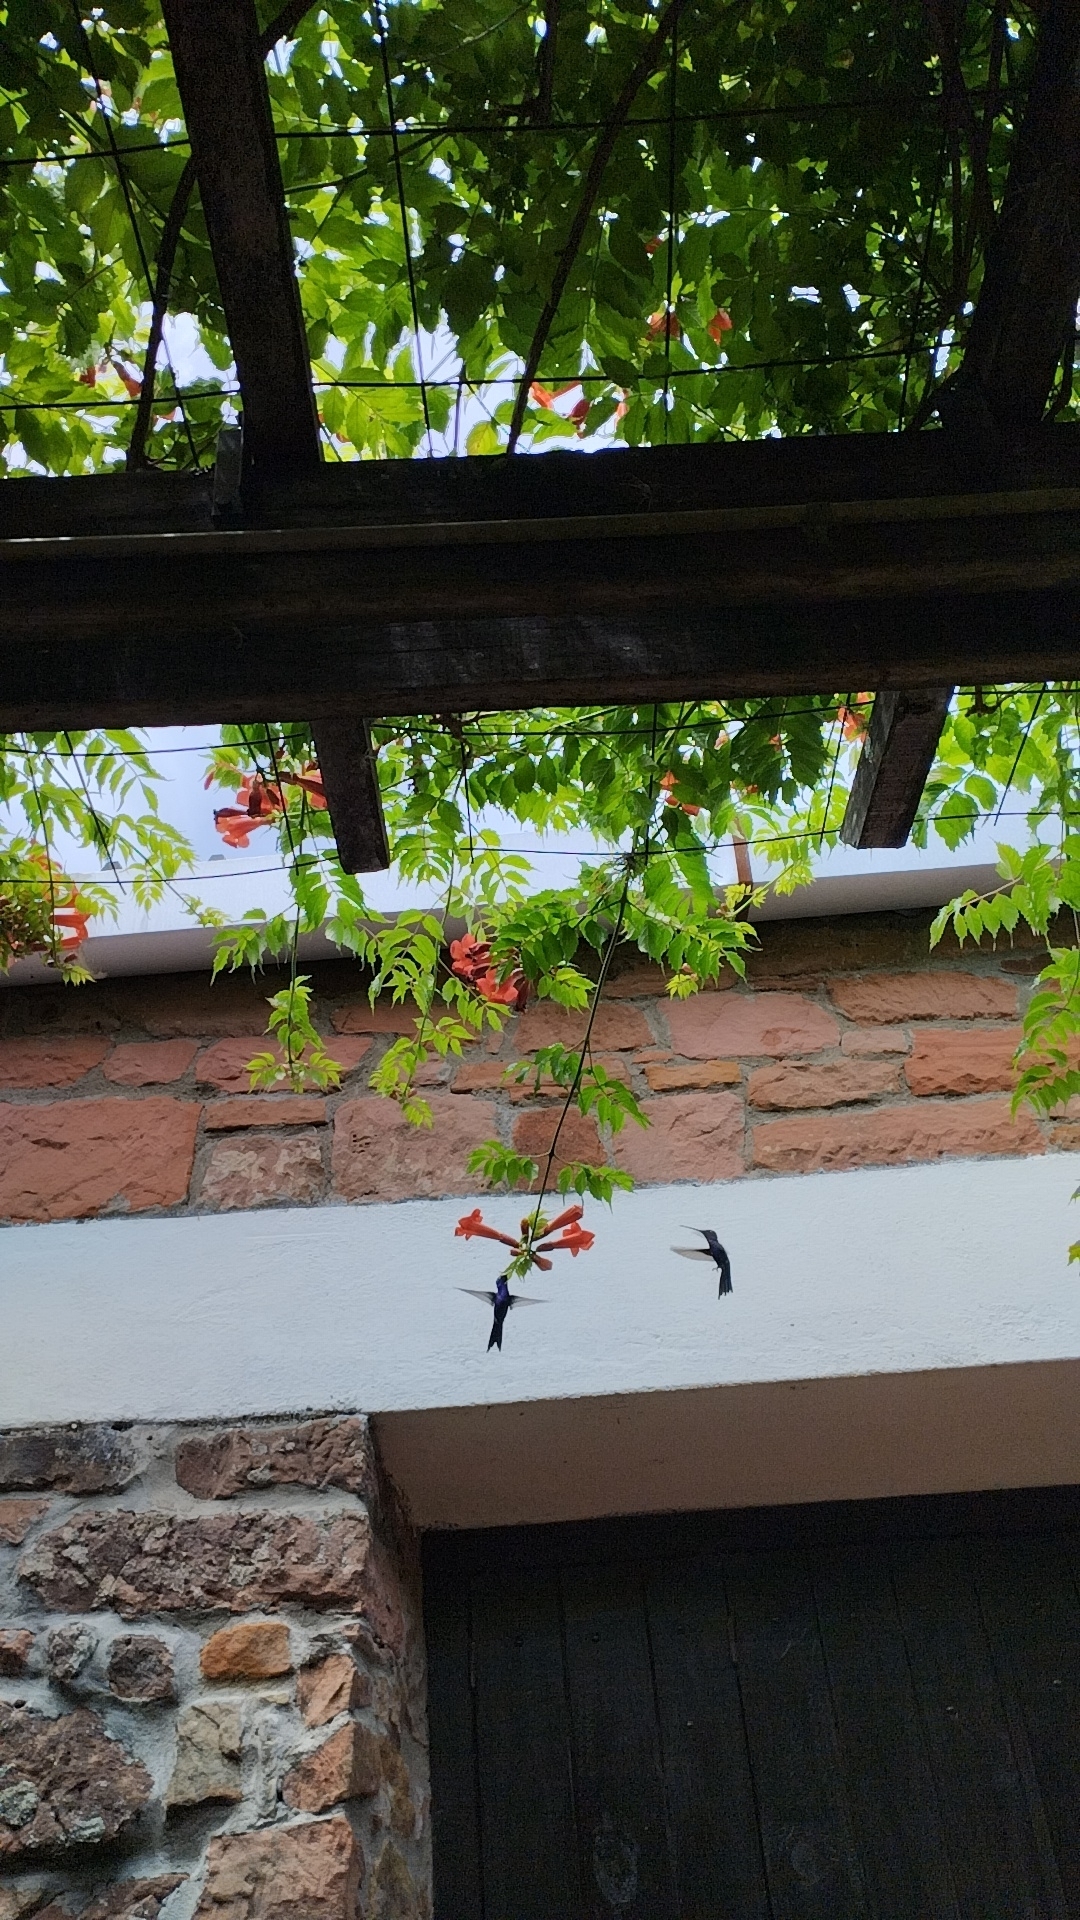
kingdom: Animalia
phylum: Chordata
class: Aves
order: Apodiformes
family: Trochilidae
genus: Heliomaster
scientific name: Heliomaster furcifer
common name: Blue-tufted starthroat
